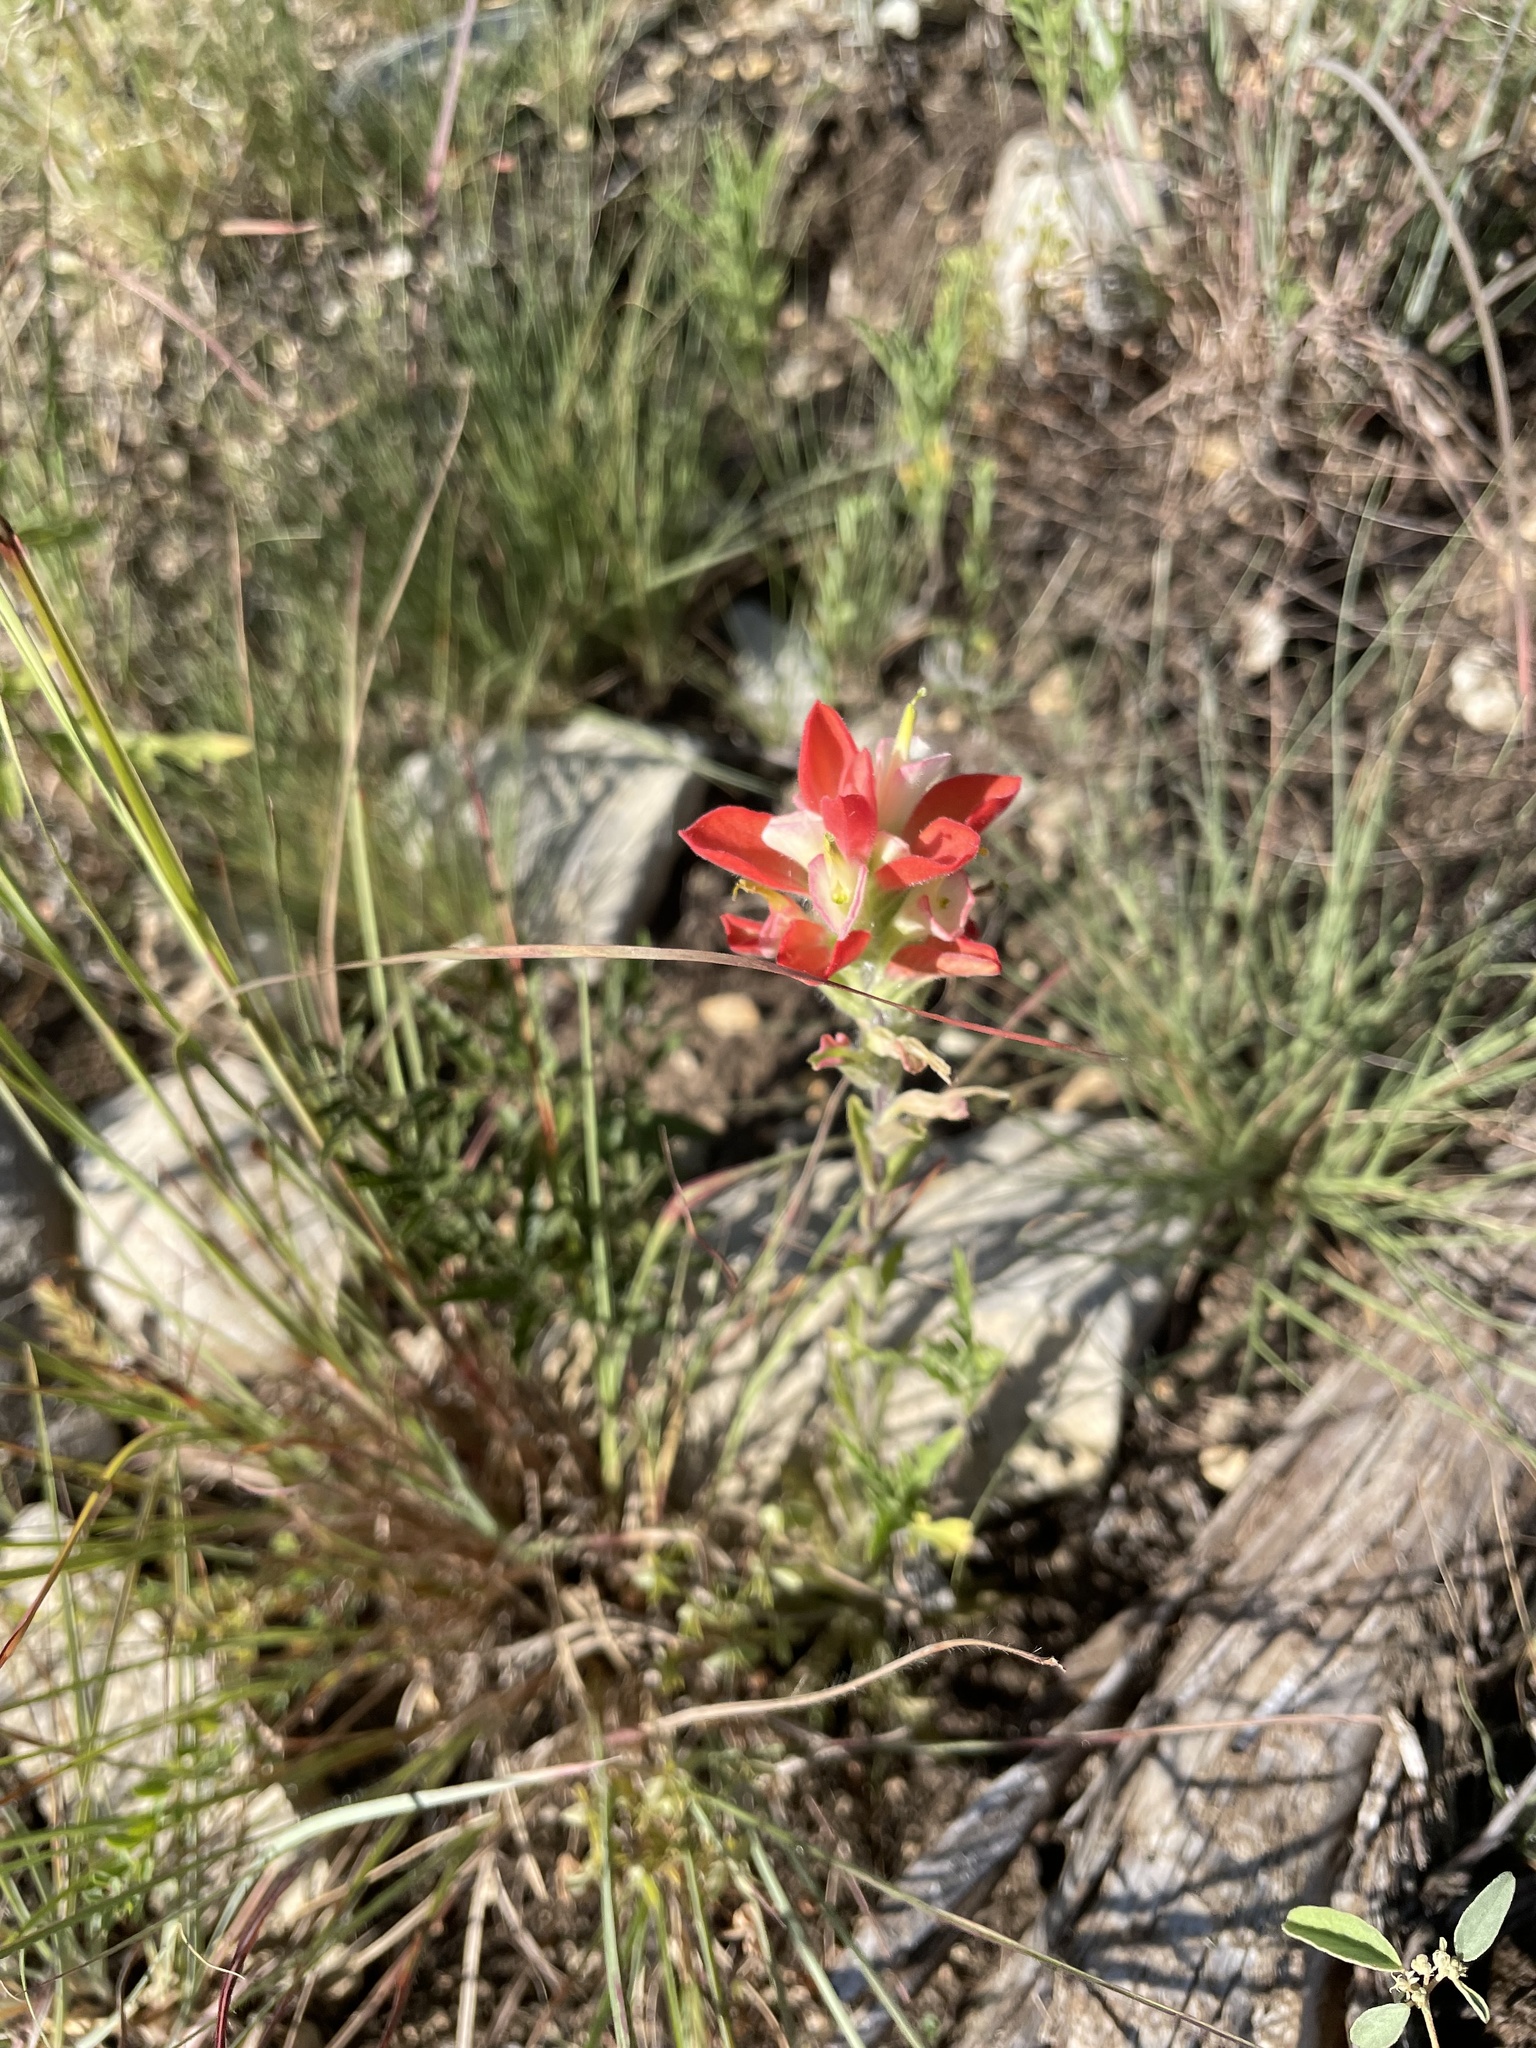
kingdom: Plantae
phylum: Tracheophyta
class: Magnoliopsida
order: Lamiales
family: Orobanchaceae
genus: Castilleja
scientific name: Castilleja indivisa
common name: Texas paintbrush
